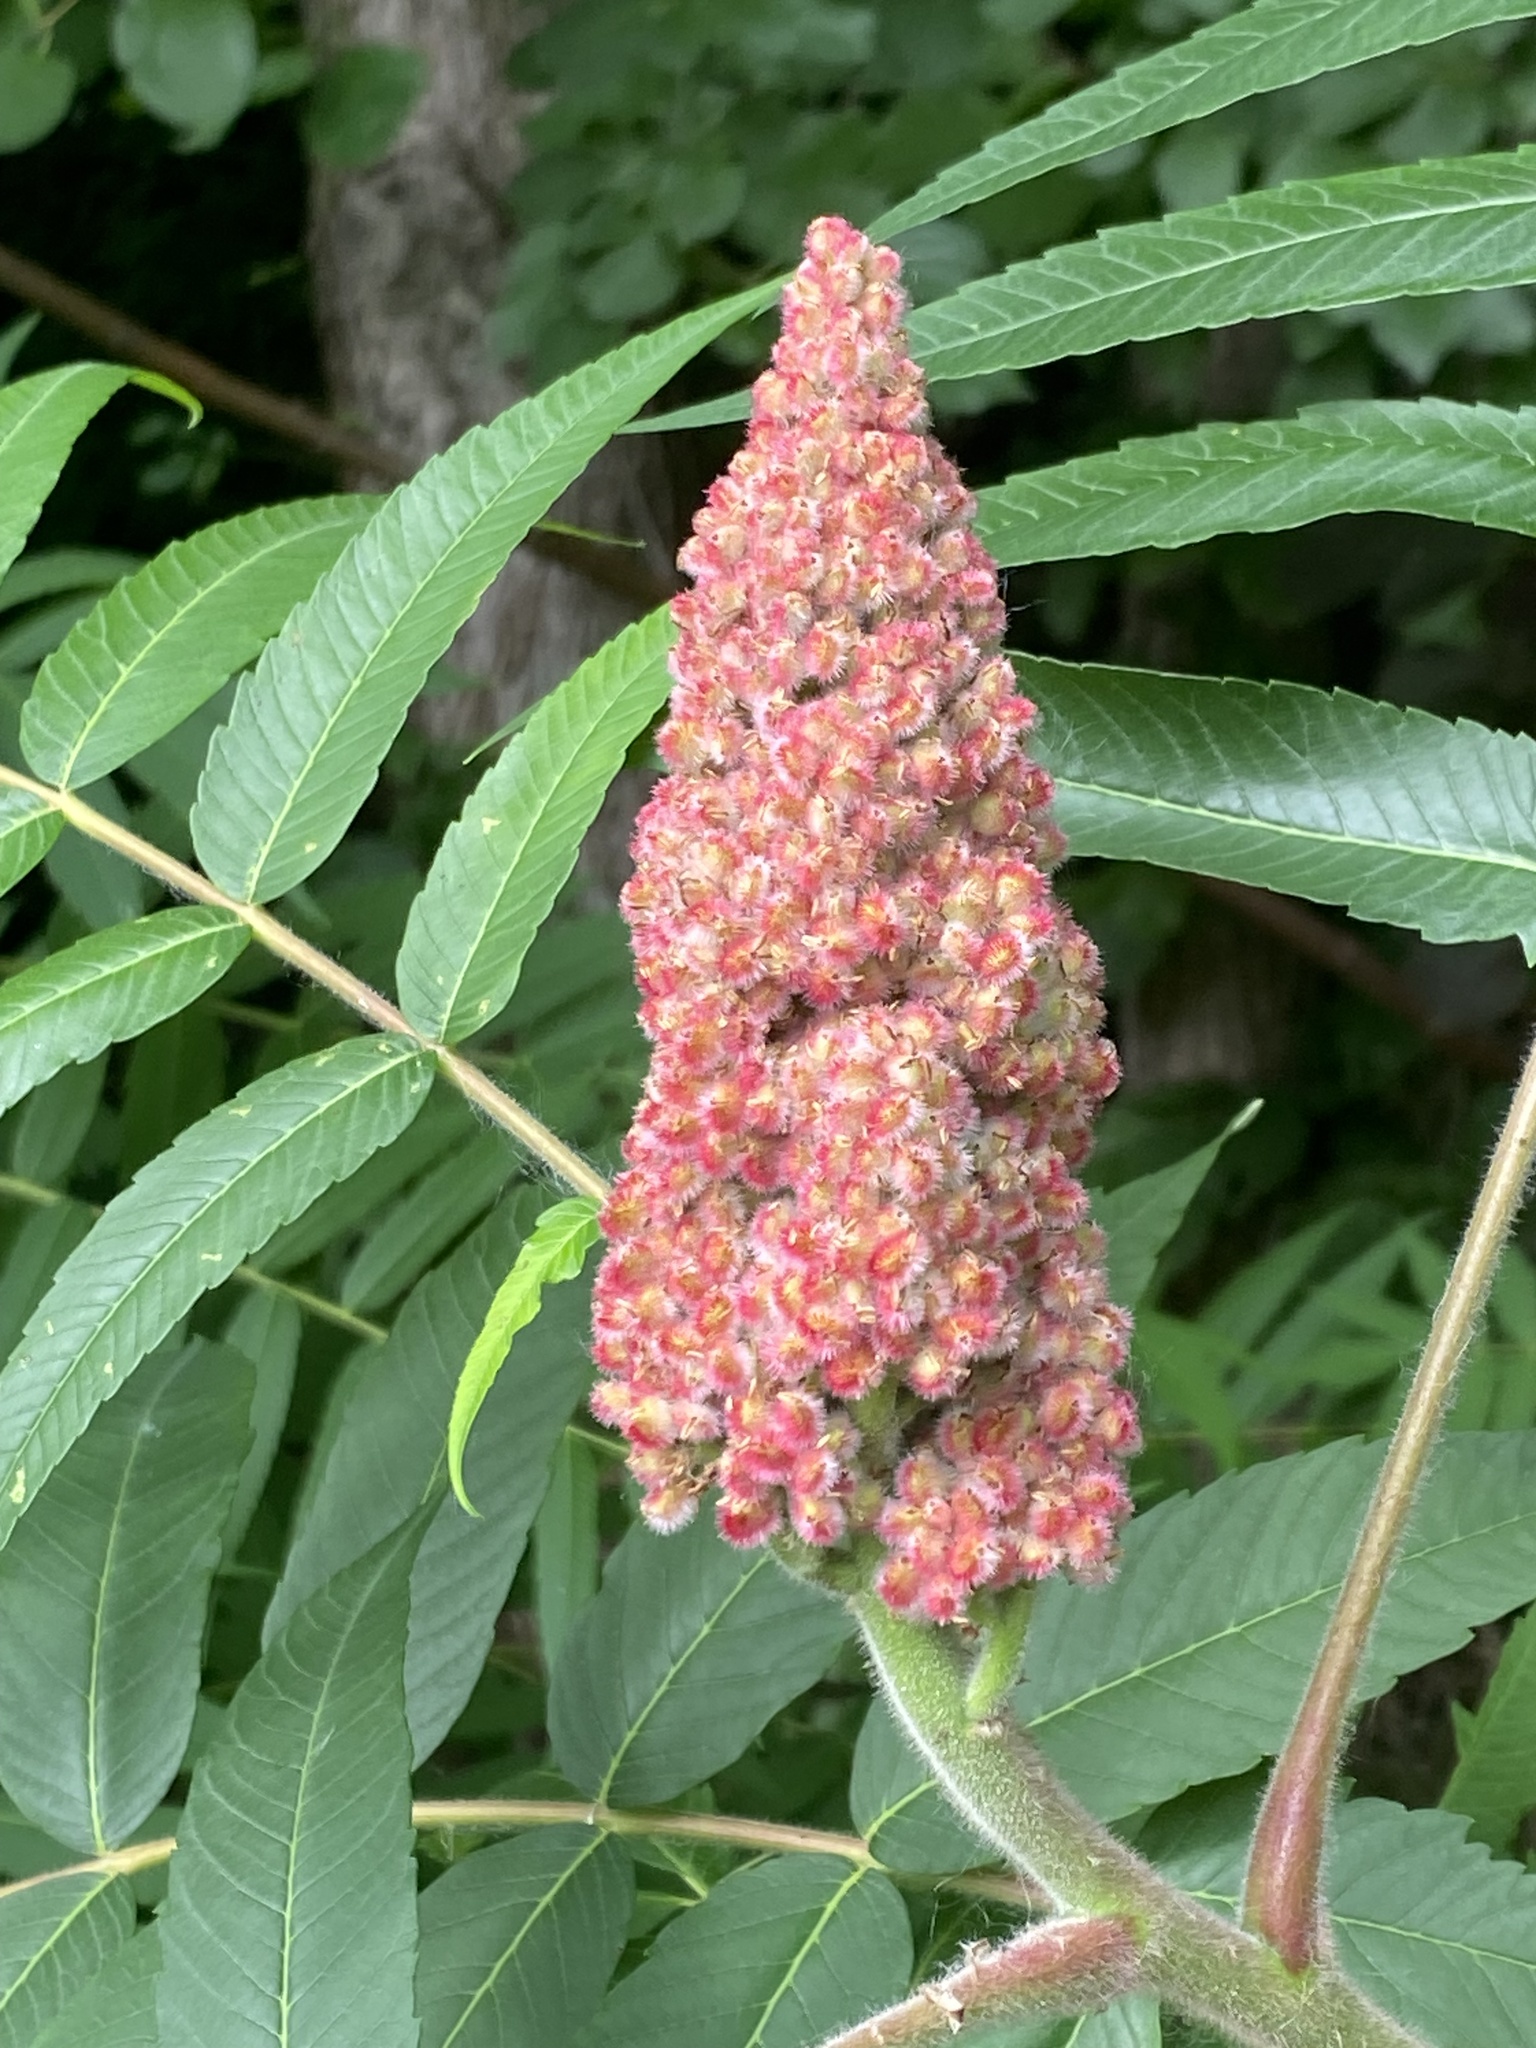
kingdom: Plantae
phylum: Tracheophyta
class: Magnoliopsida
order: Sapindales
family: Anacardiaceae
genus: Rhus
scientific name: Rhus typhina
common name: Staghorn sumac
